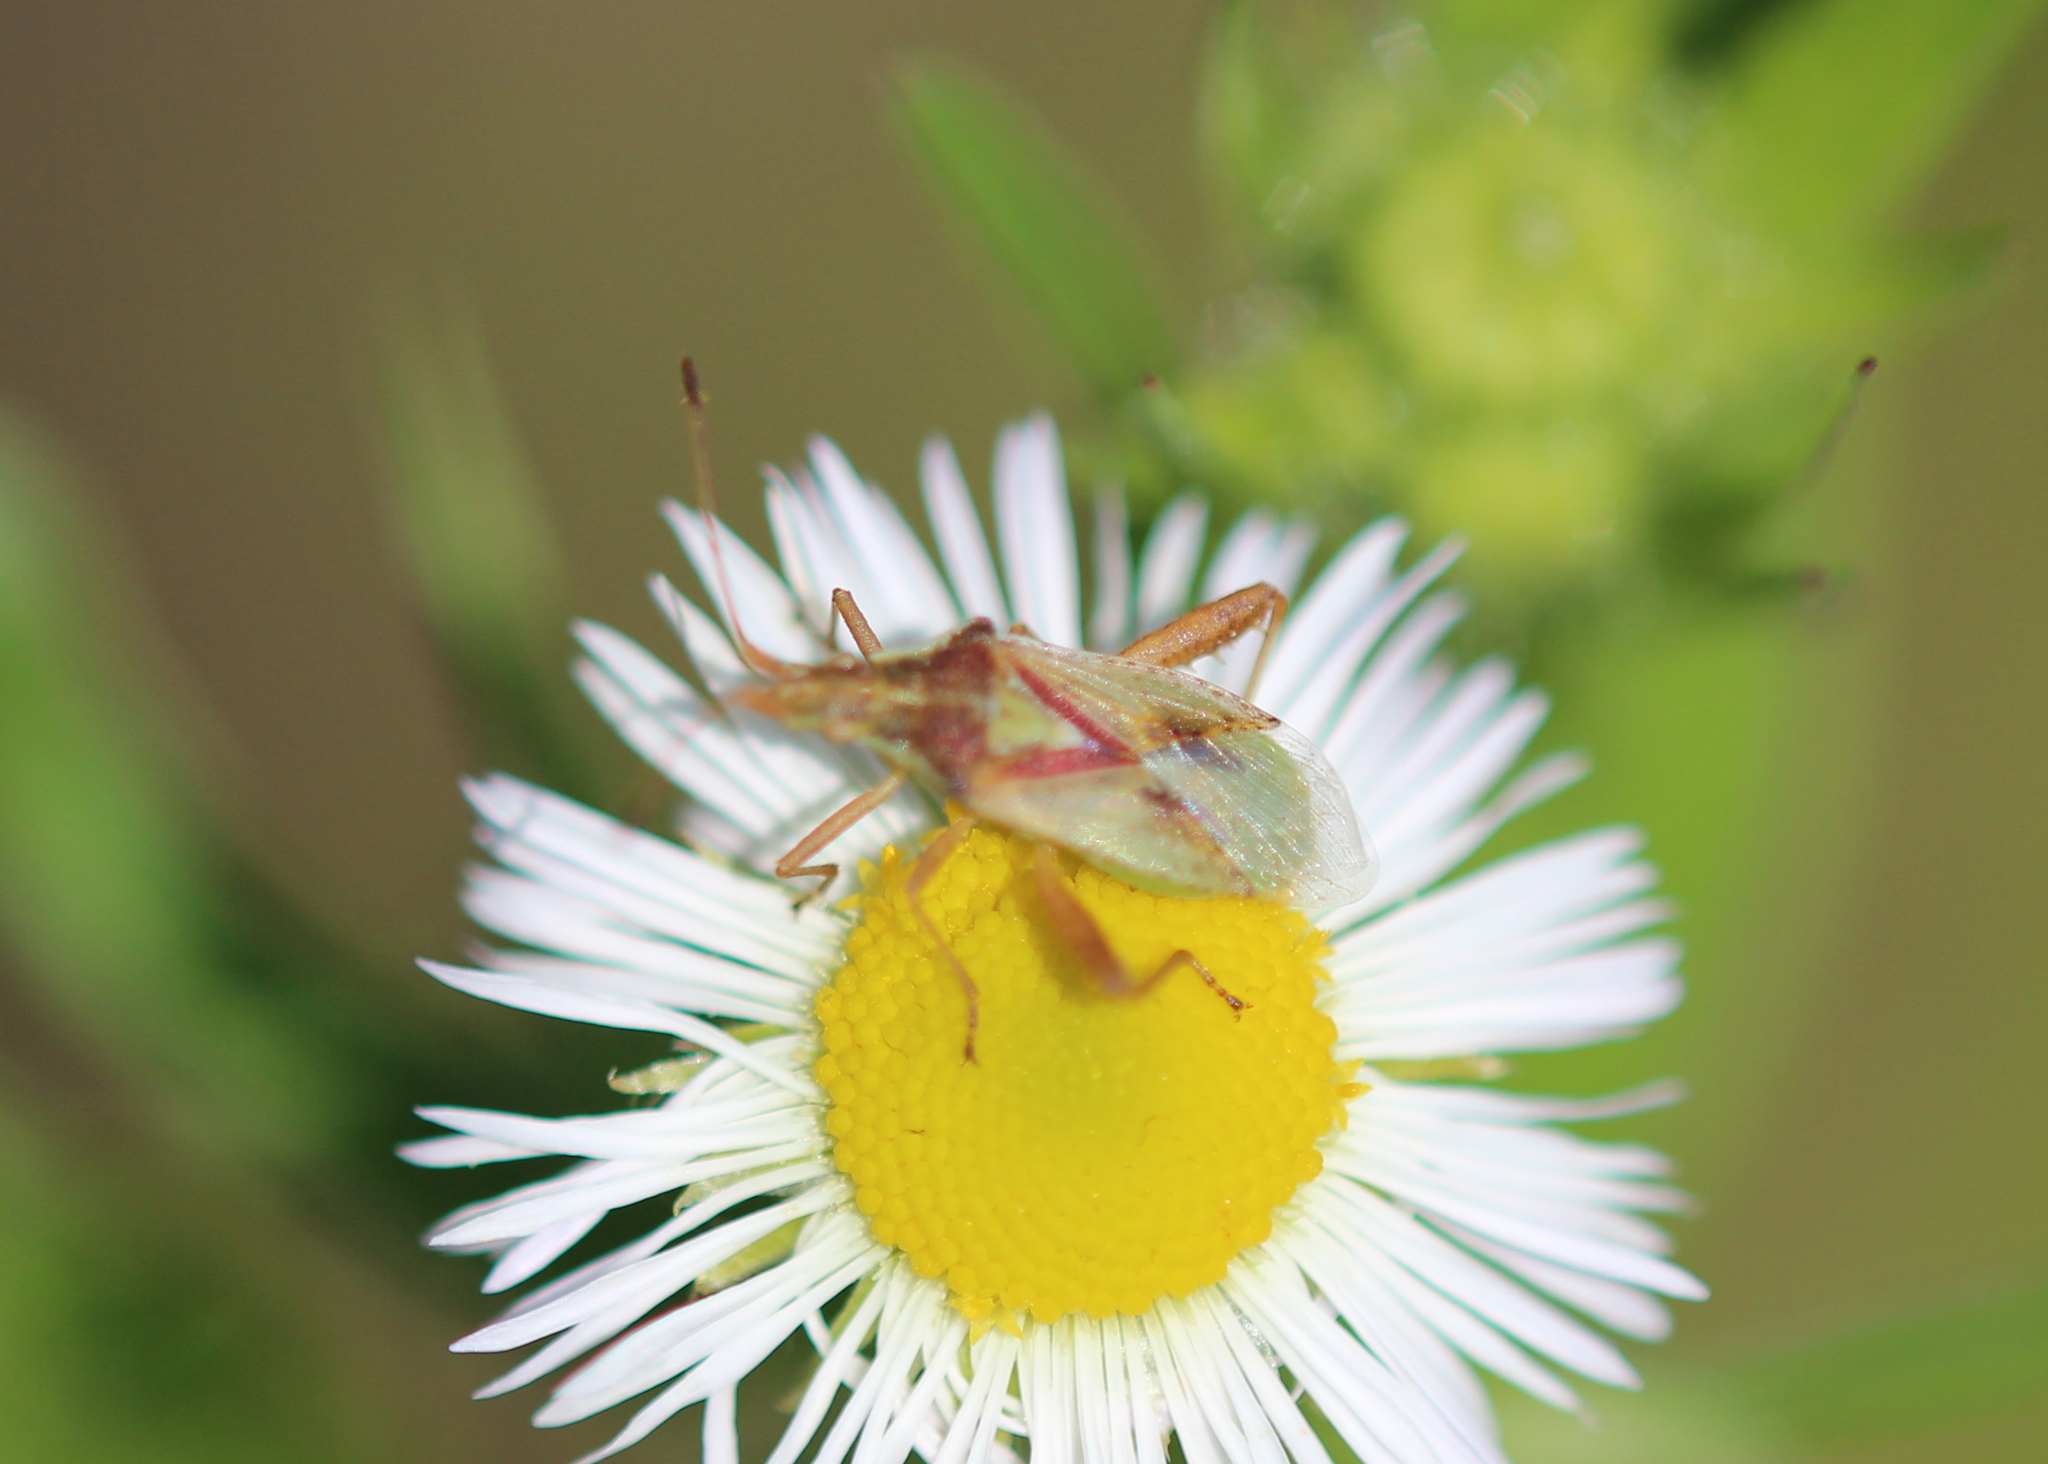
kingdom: Animalia
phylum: Arthropoda
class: Insecta
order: Hemiptera
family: Rhopalidae
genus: Harmostes
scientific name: Harmostes reflexulus
